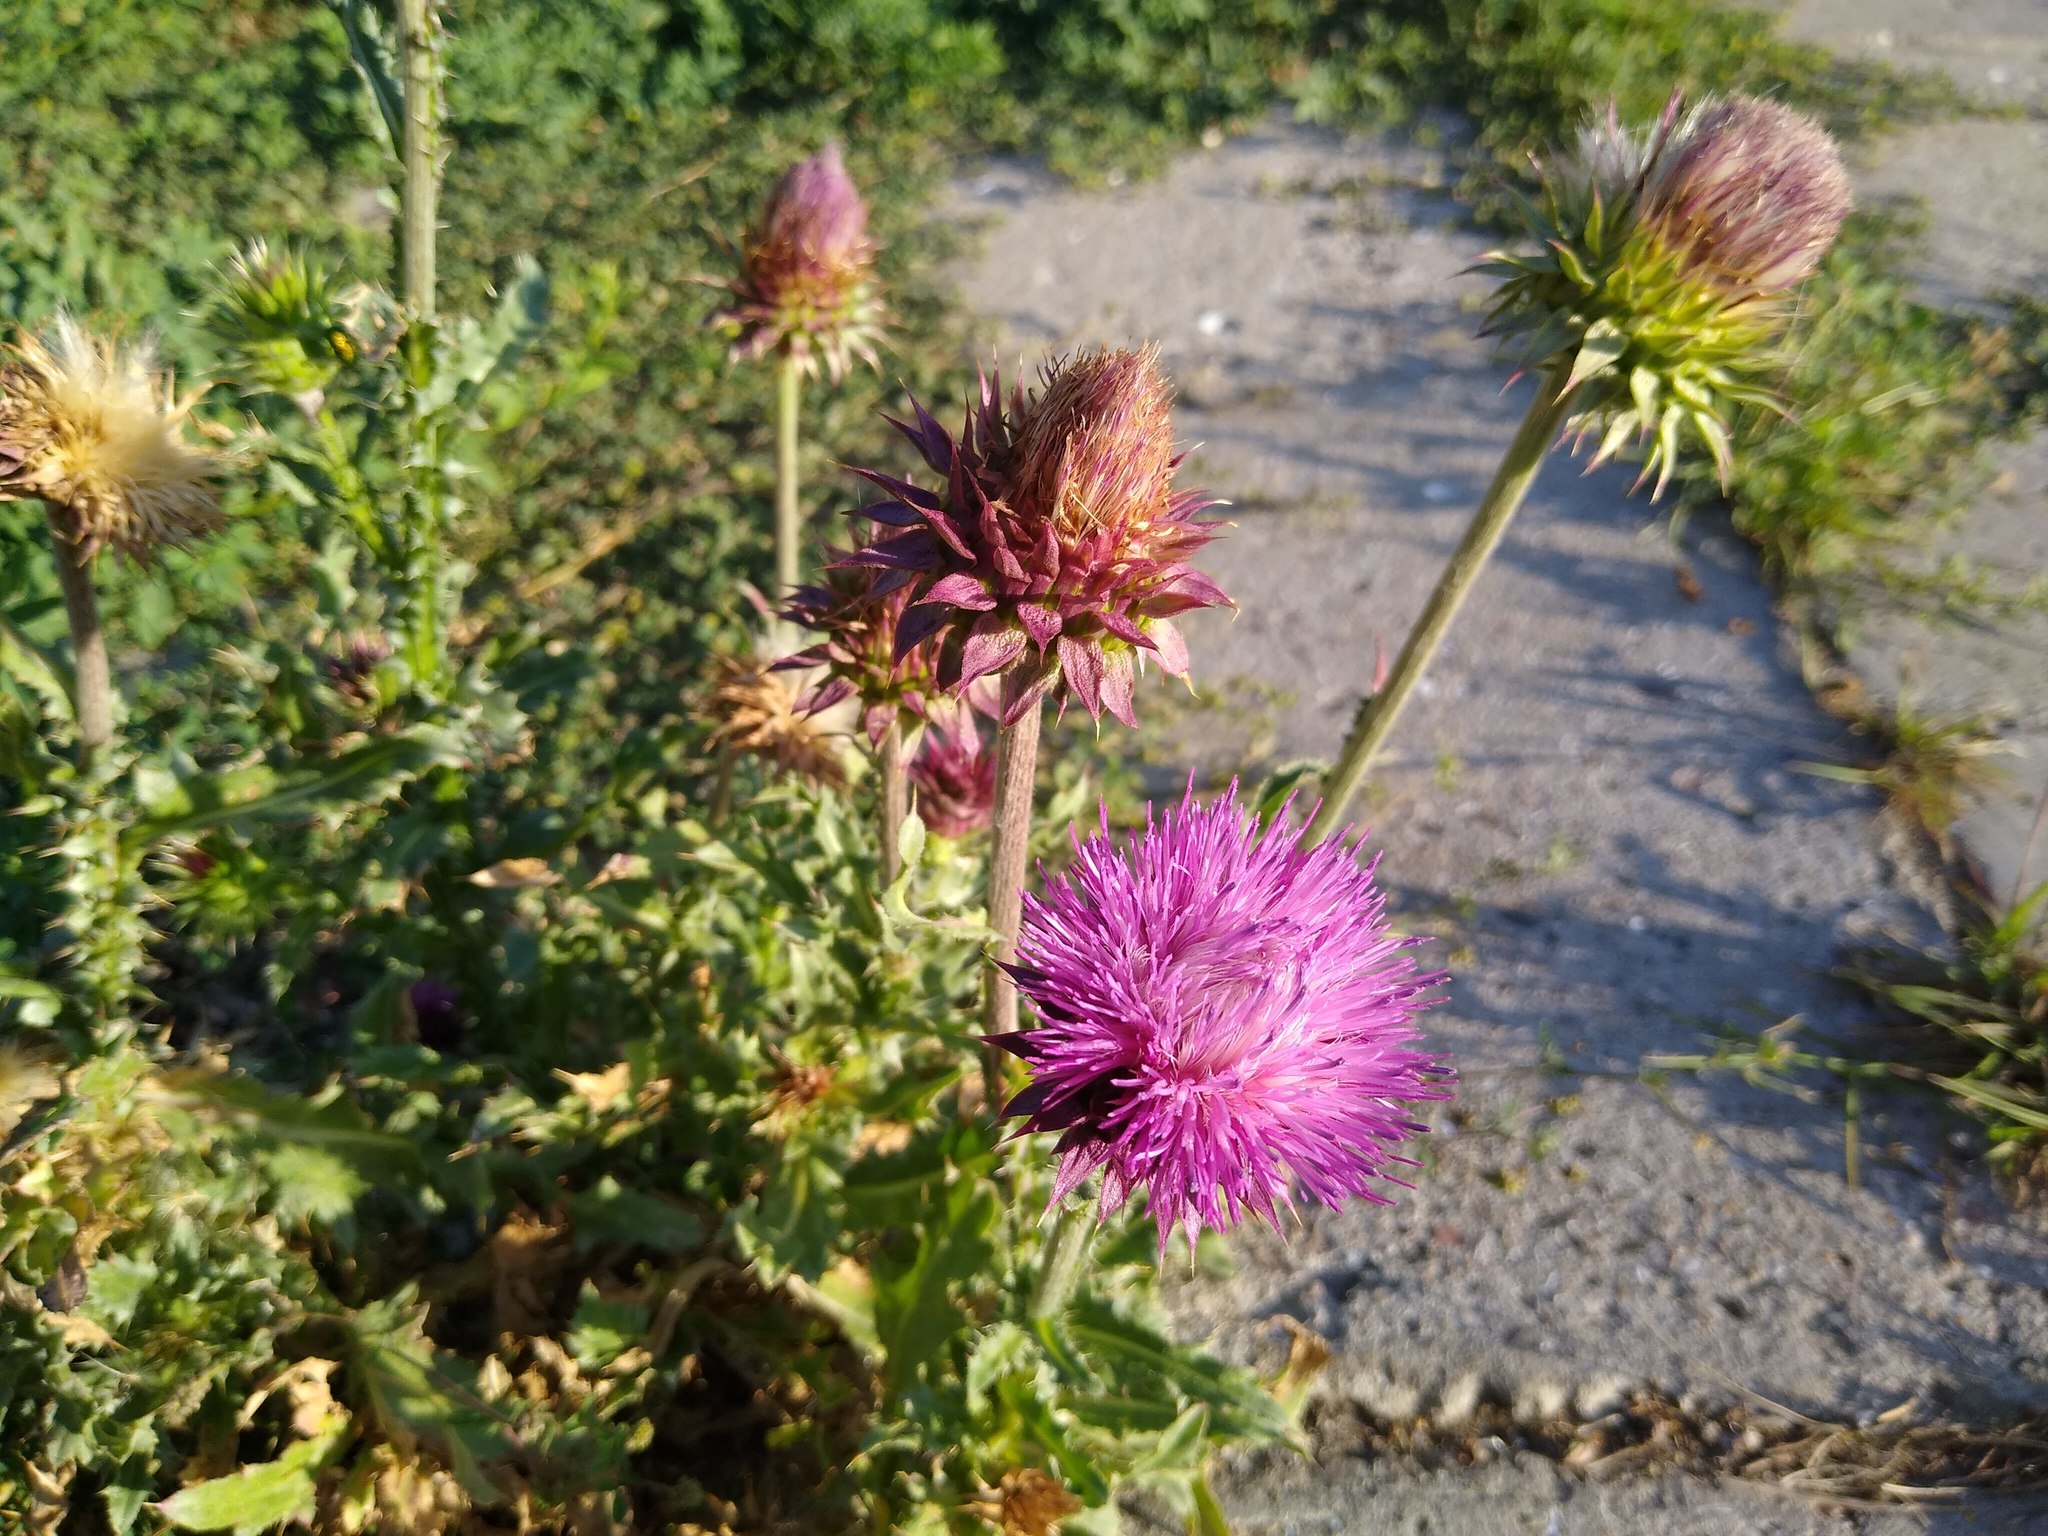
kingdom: Plantae
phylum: Tracheophyta
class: Magnoliopsida
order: Asterales
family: Asteraceae
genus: Carduus
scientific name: Carduus nutans
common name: Musk thistle
